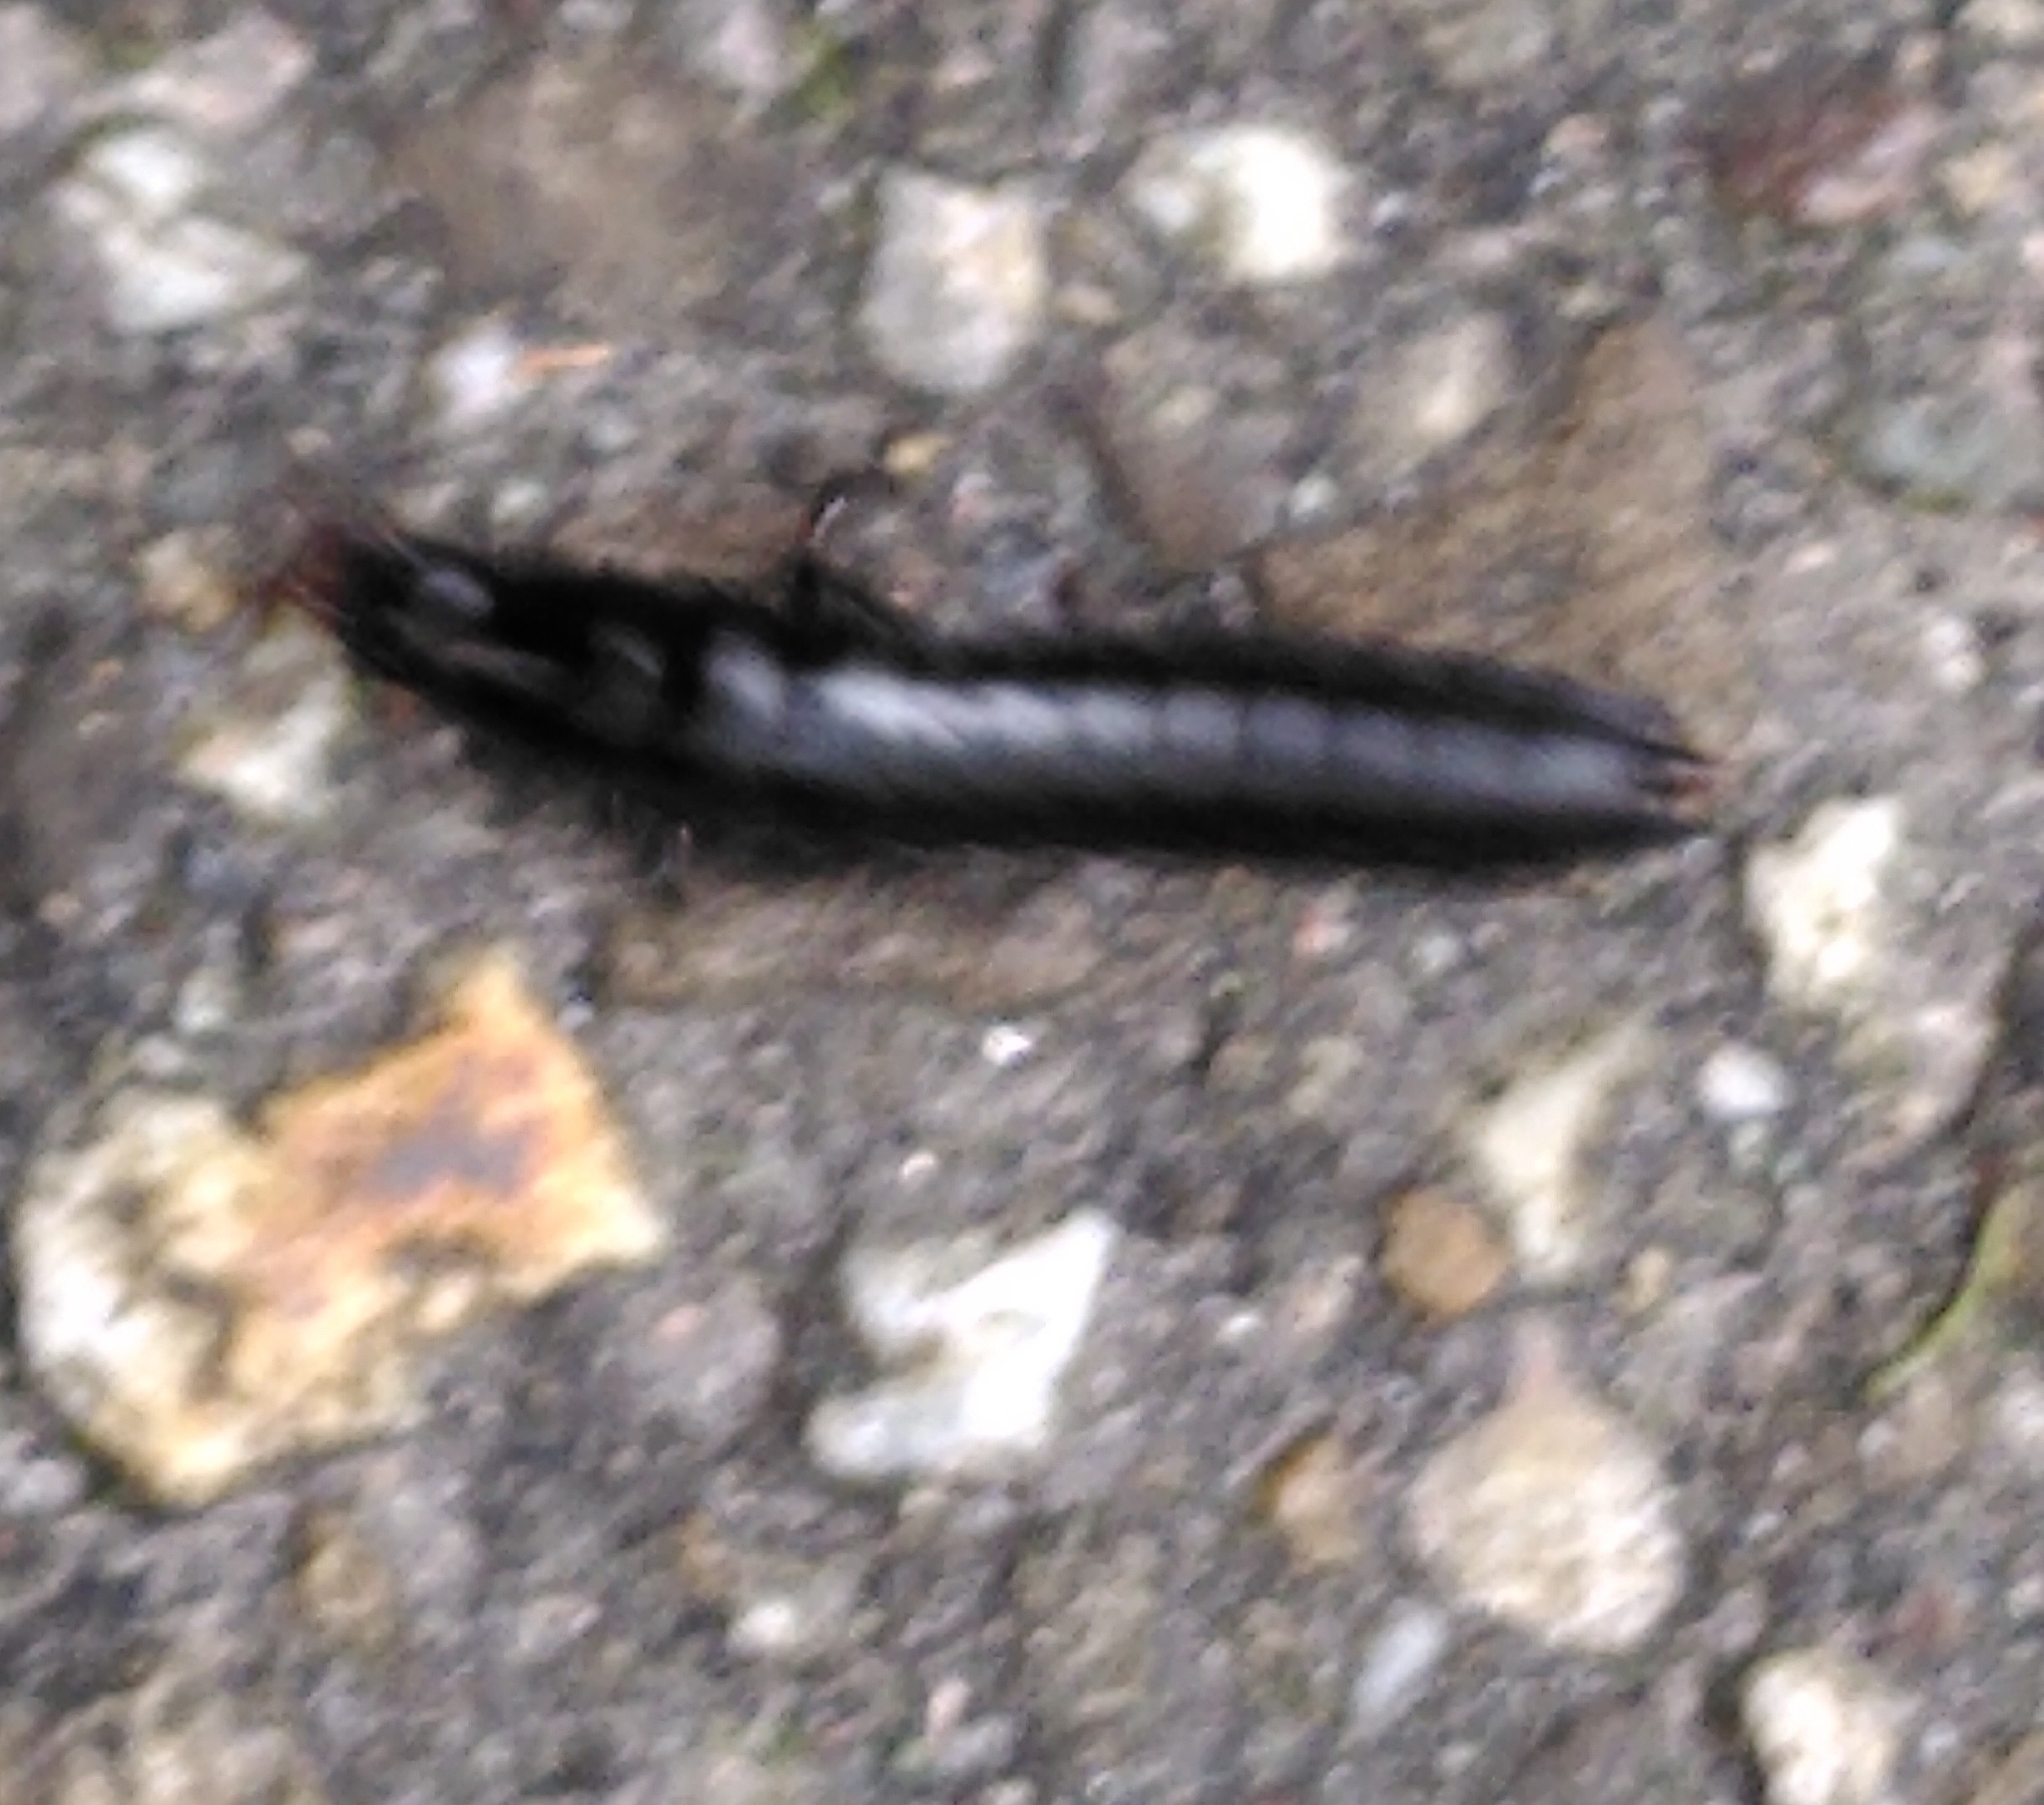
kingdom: Animalia
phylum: Arthropoda
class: Insecta
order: Coleoptera
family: Carabidae
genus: Carabus
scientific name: Carabus
